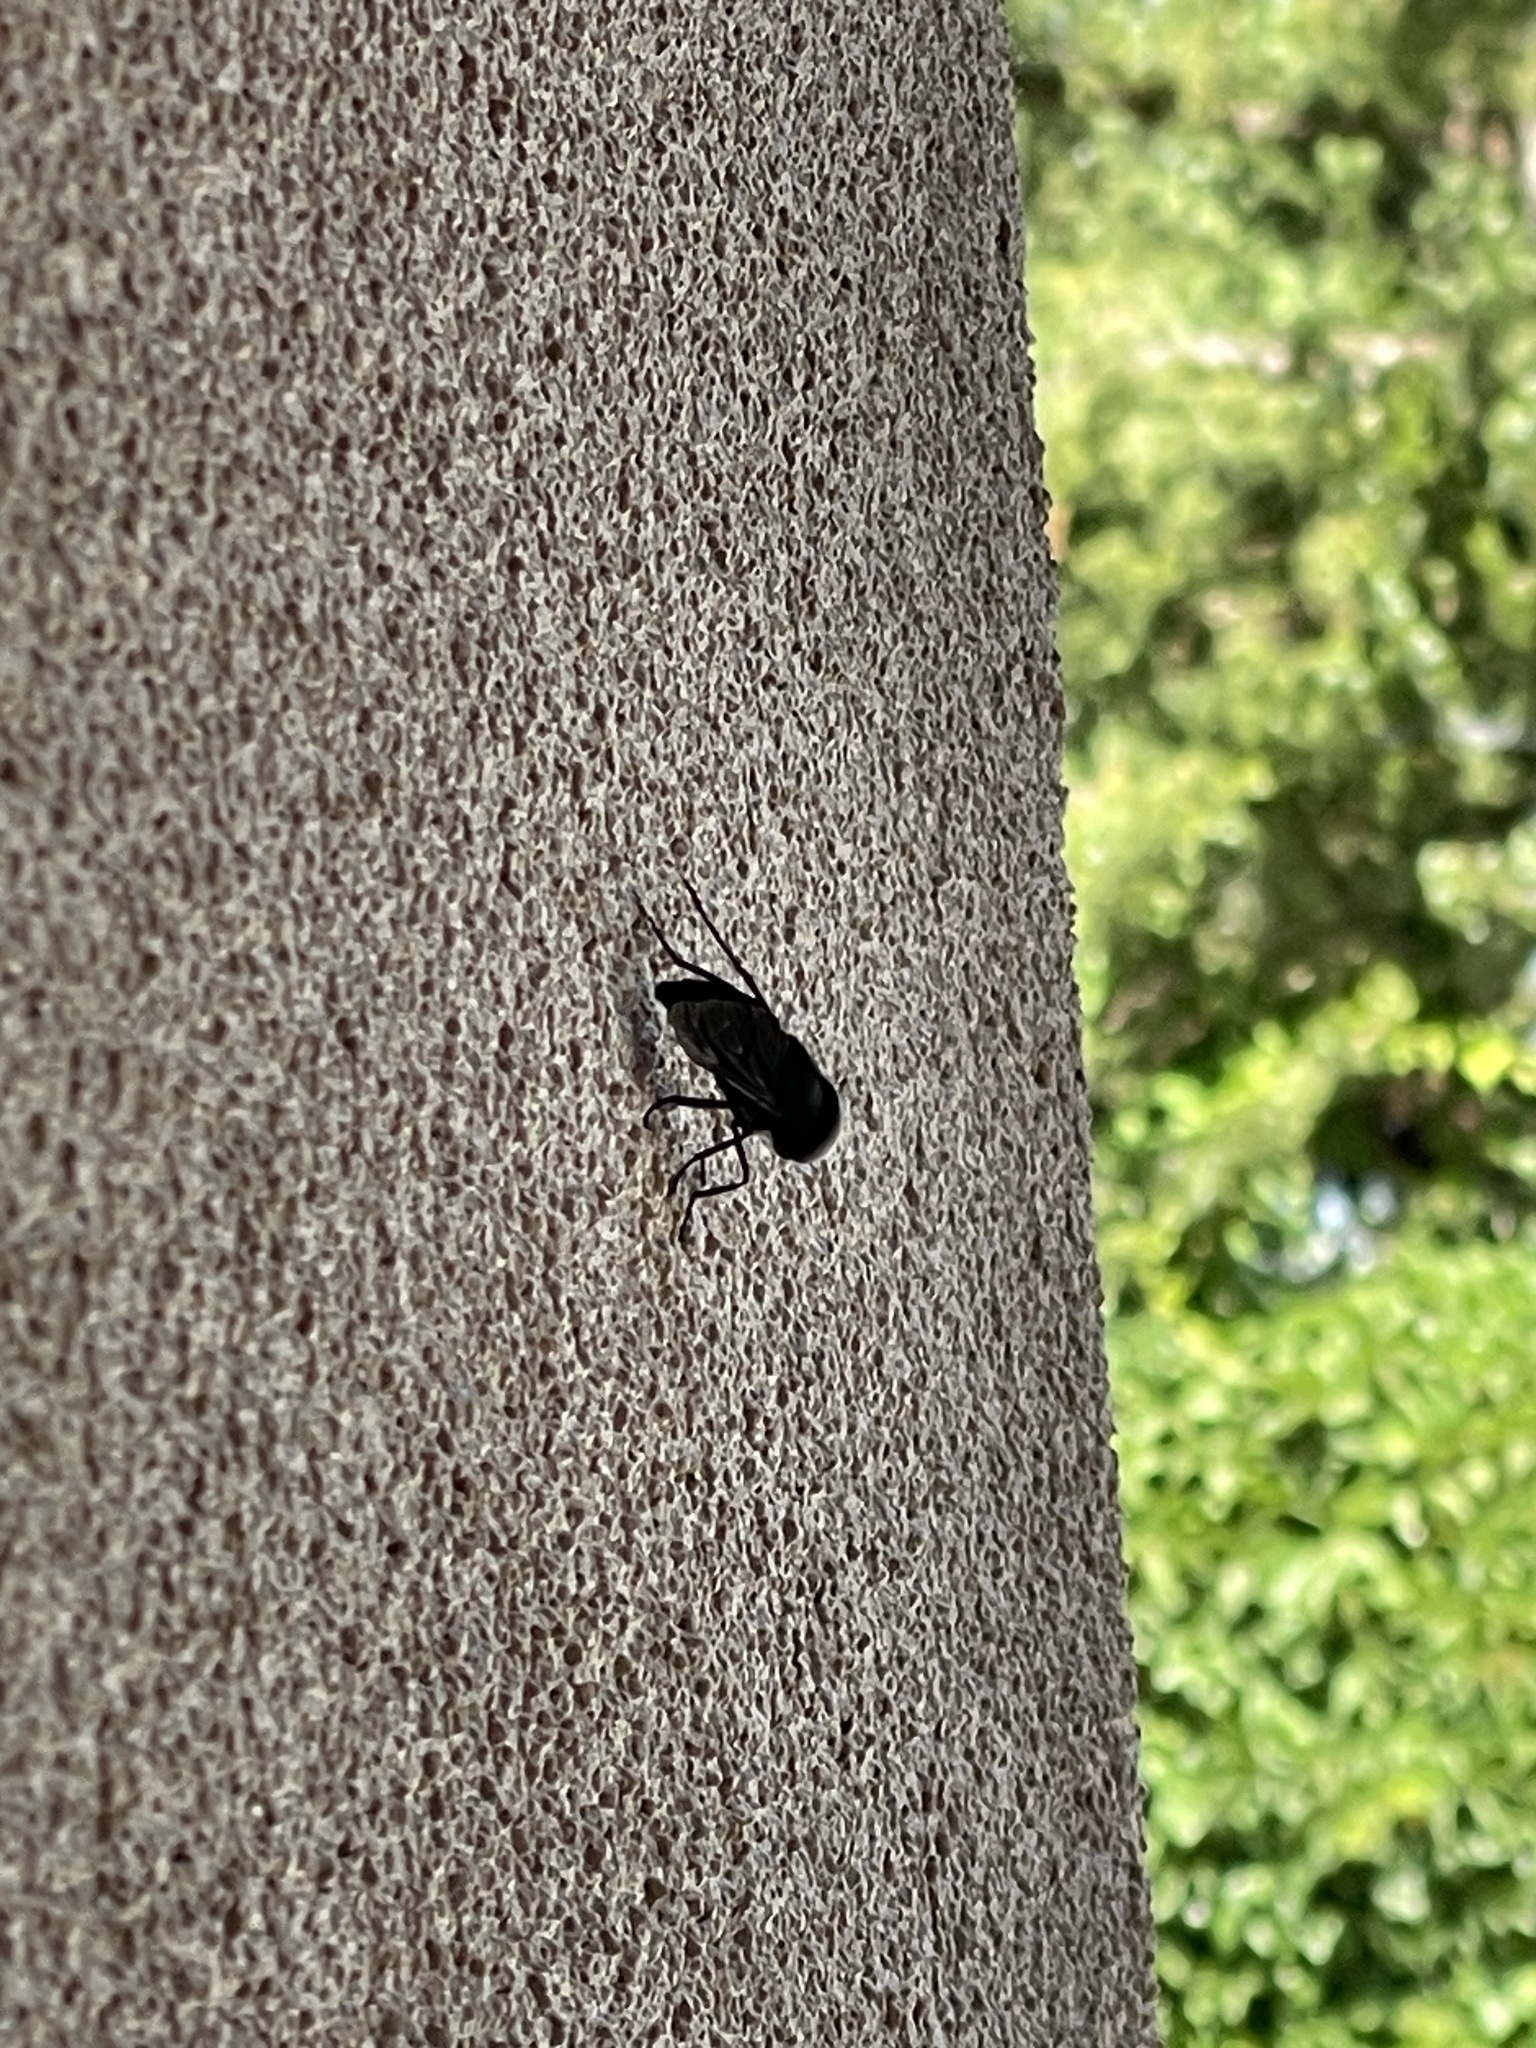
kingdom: Animalia
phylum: Arthropoda
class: Insecta
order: Diptera
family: Tabanidae
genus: Tabanus
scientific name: Tabanus atratus
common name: Black horse fly
